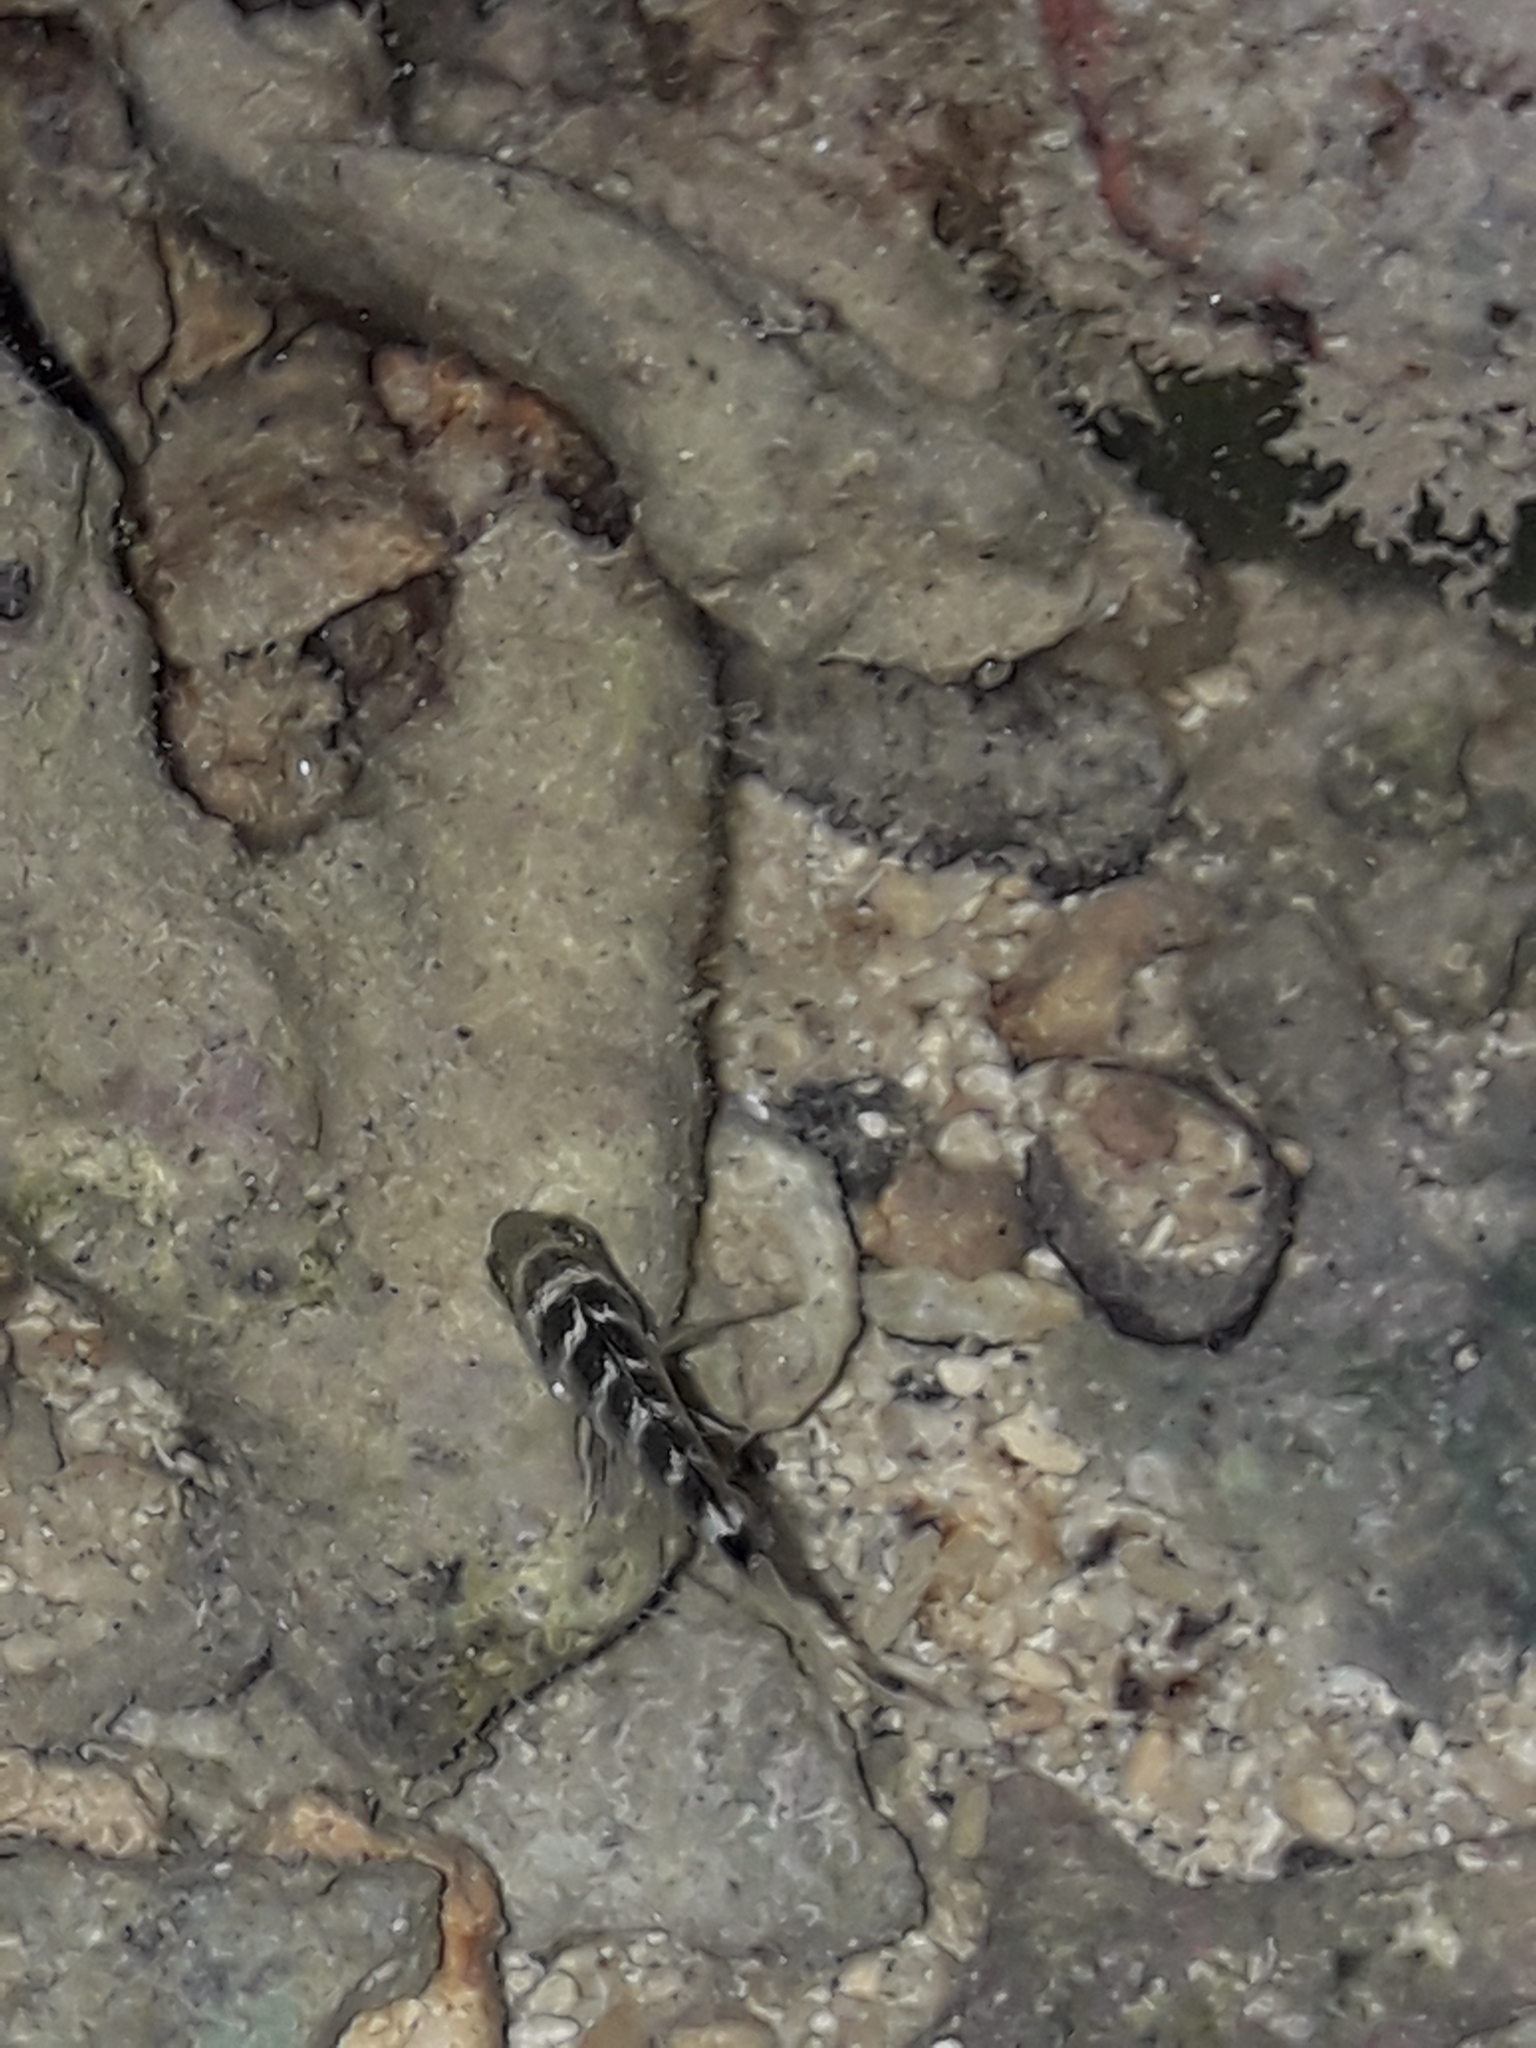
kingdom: Animalia
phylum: Chordata
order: Perciformes
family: Pomacentridae
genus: Abudefduf
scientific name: Abudefduf septemfasciatus
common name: Banded sergeant
